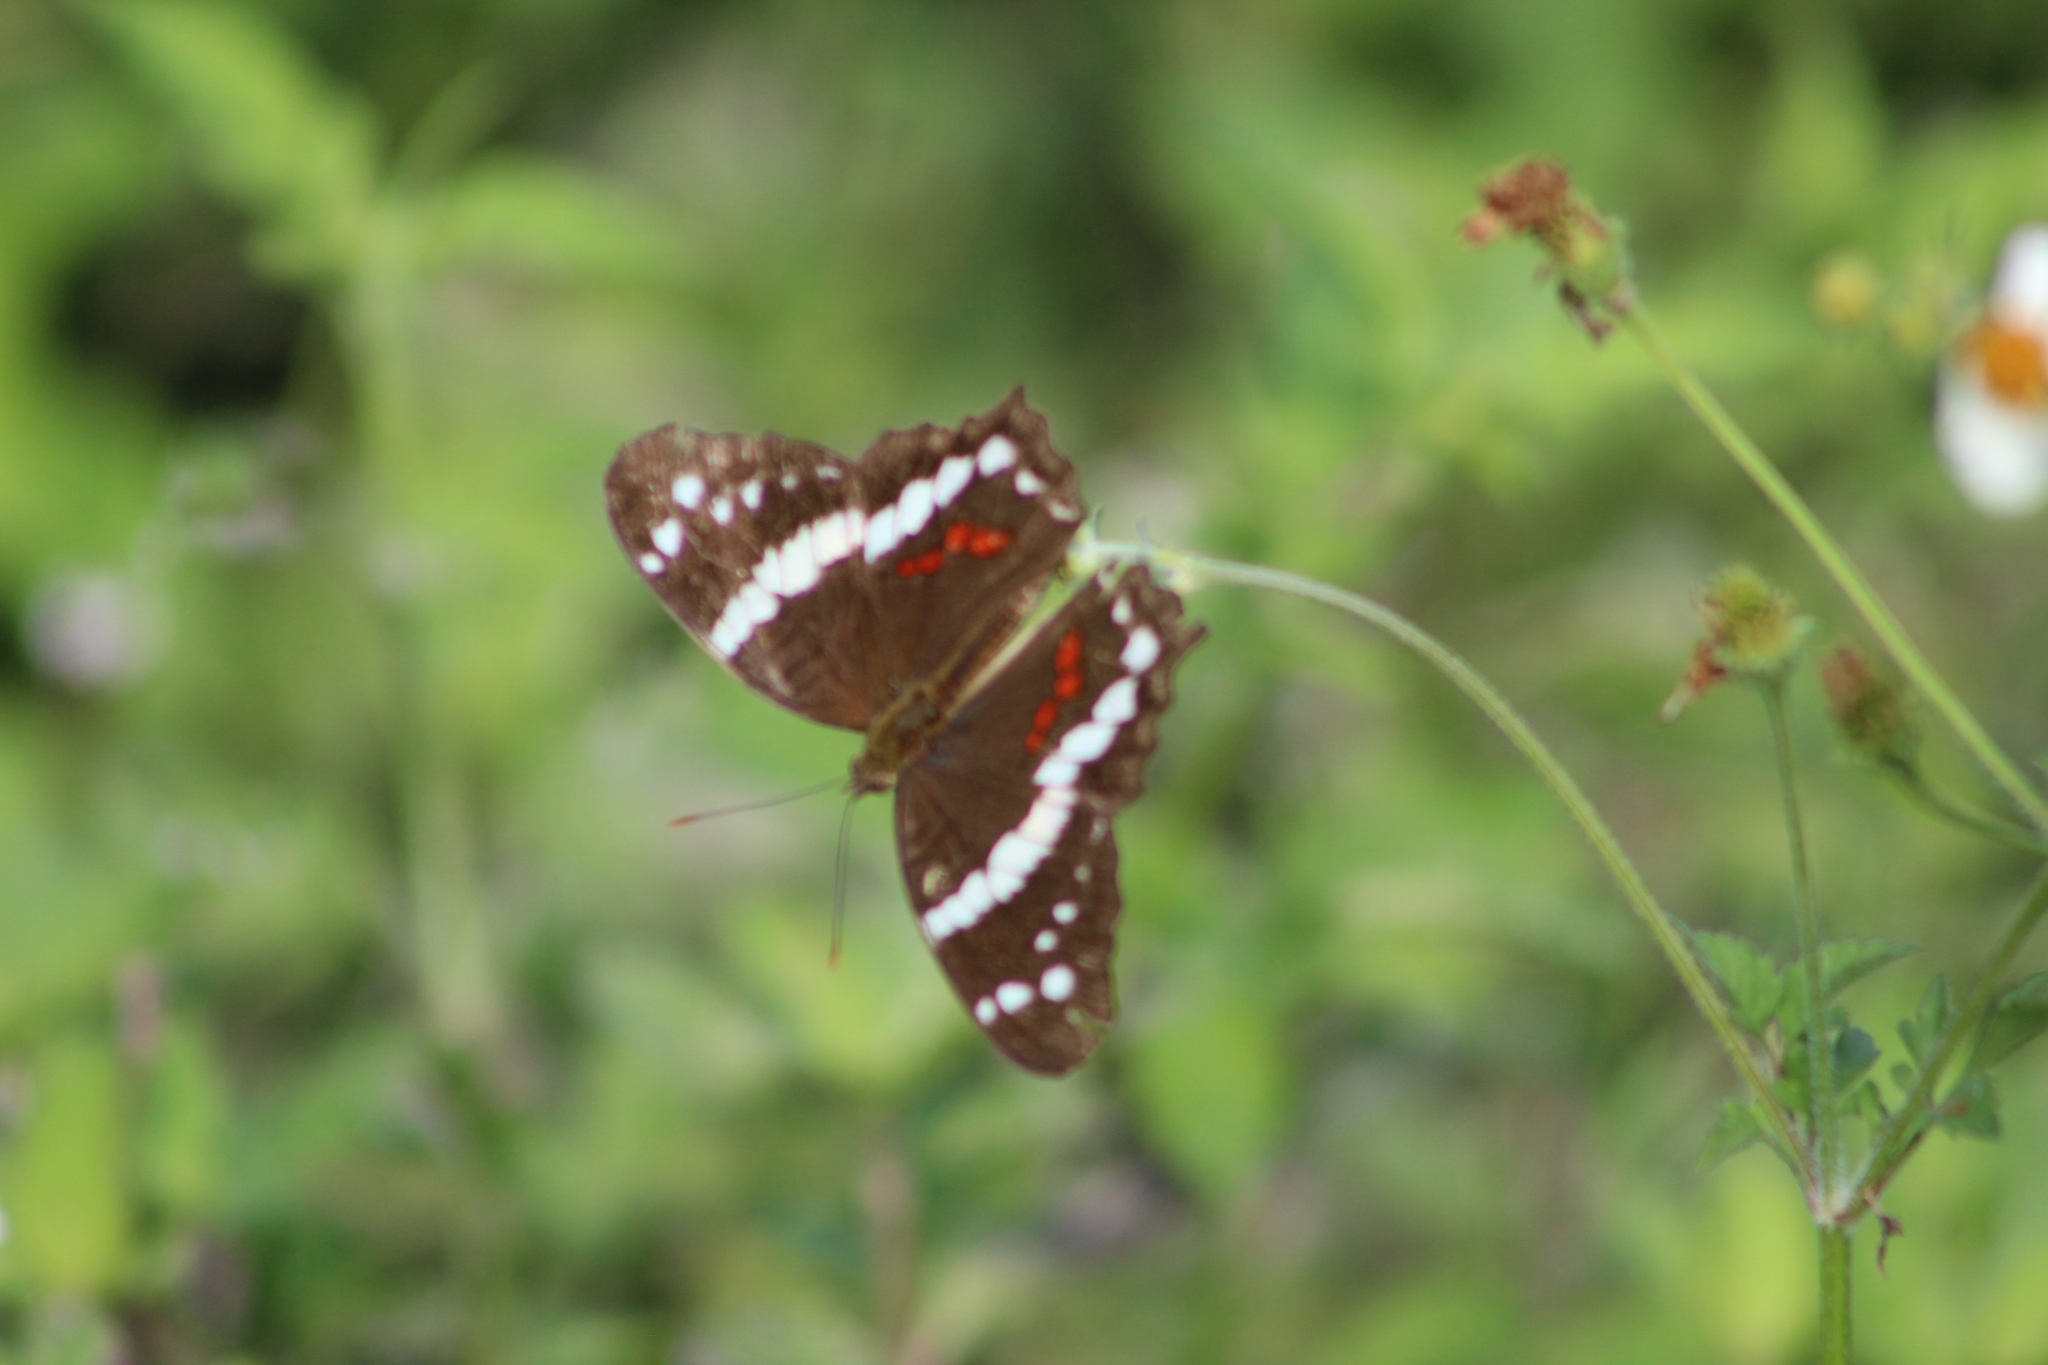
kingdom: Animalia
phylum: Arthropoda
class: Insecta
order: Lepidoptera
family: Nymphalidae
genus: Anartia
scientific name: Anartia fatima
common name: Banded peacock
